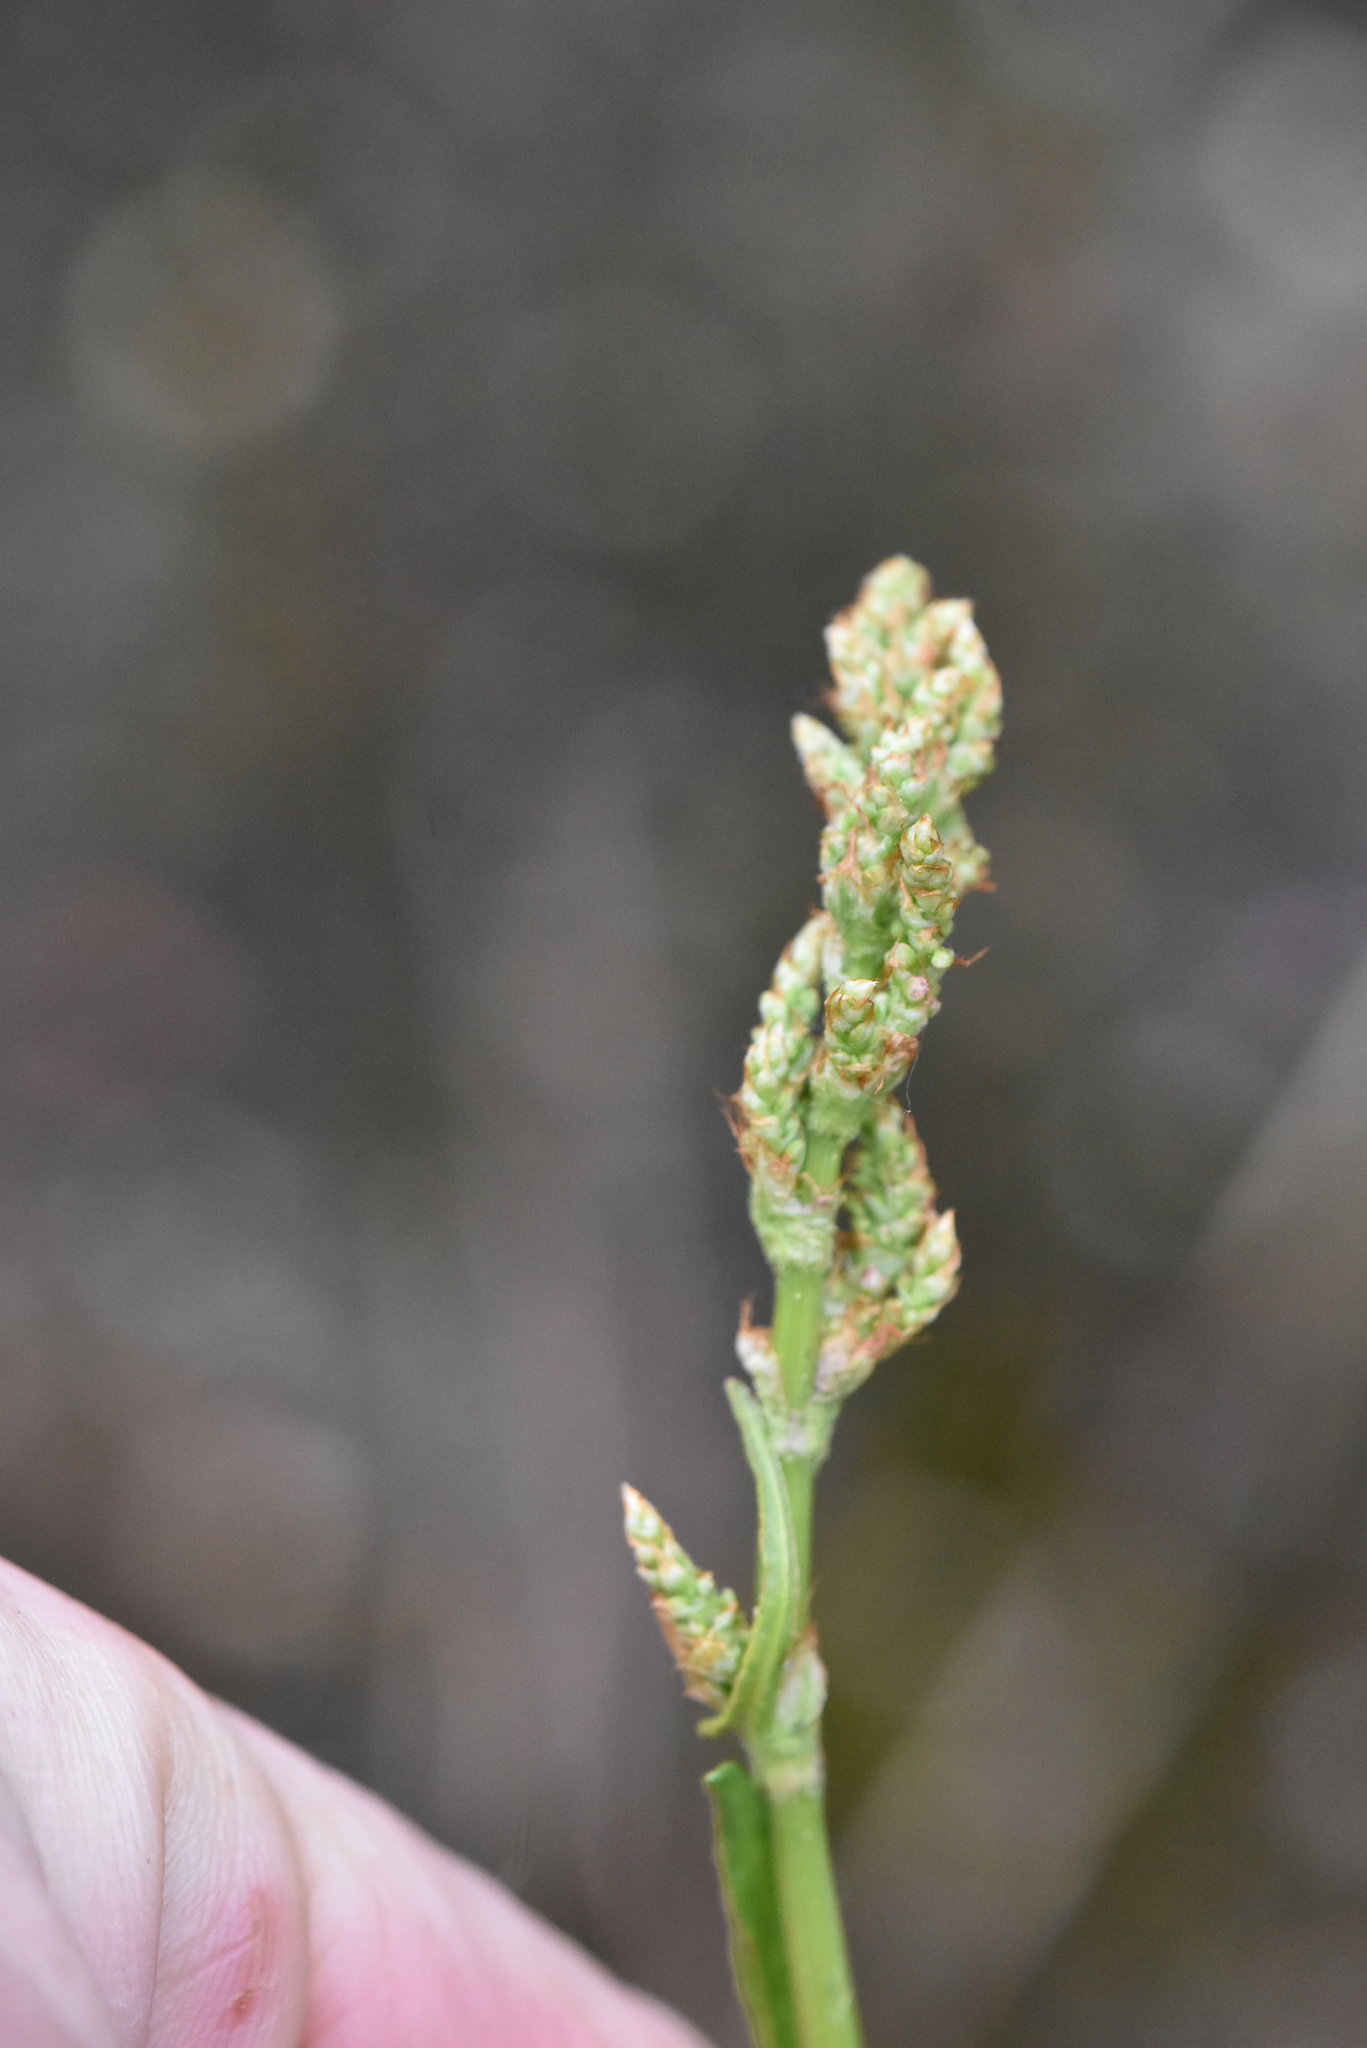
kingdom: Plantae
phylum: Tracheophyta
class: Magnoliopsida
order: Caryophyllales
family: Polygonaceae
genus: Rumex
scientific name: Rumex acetosa
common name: Garden sorrel
